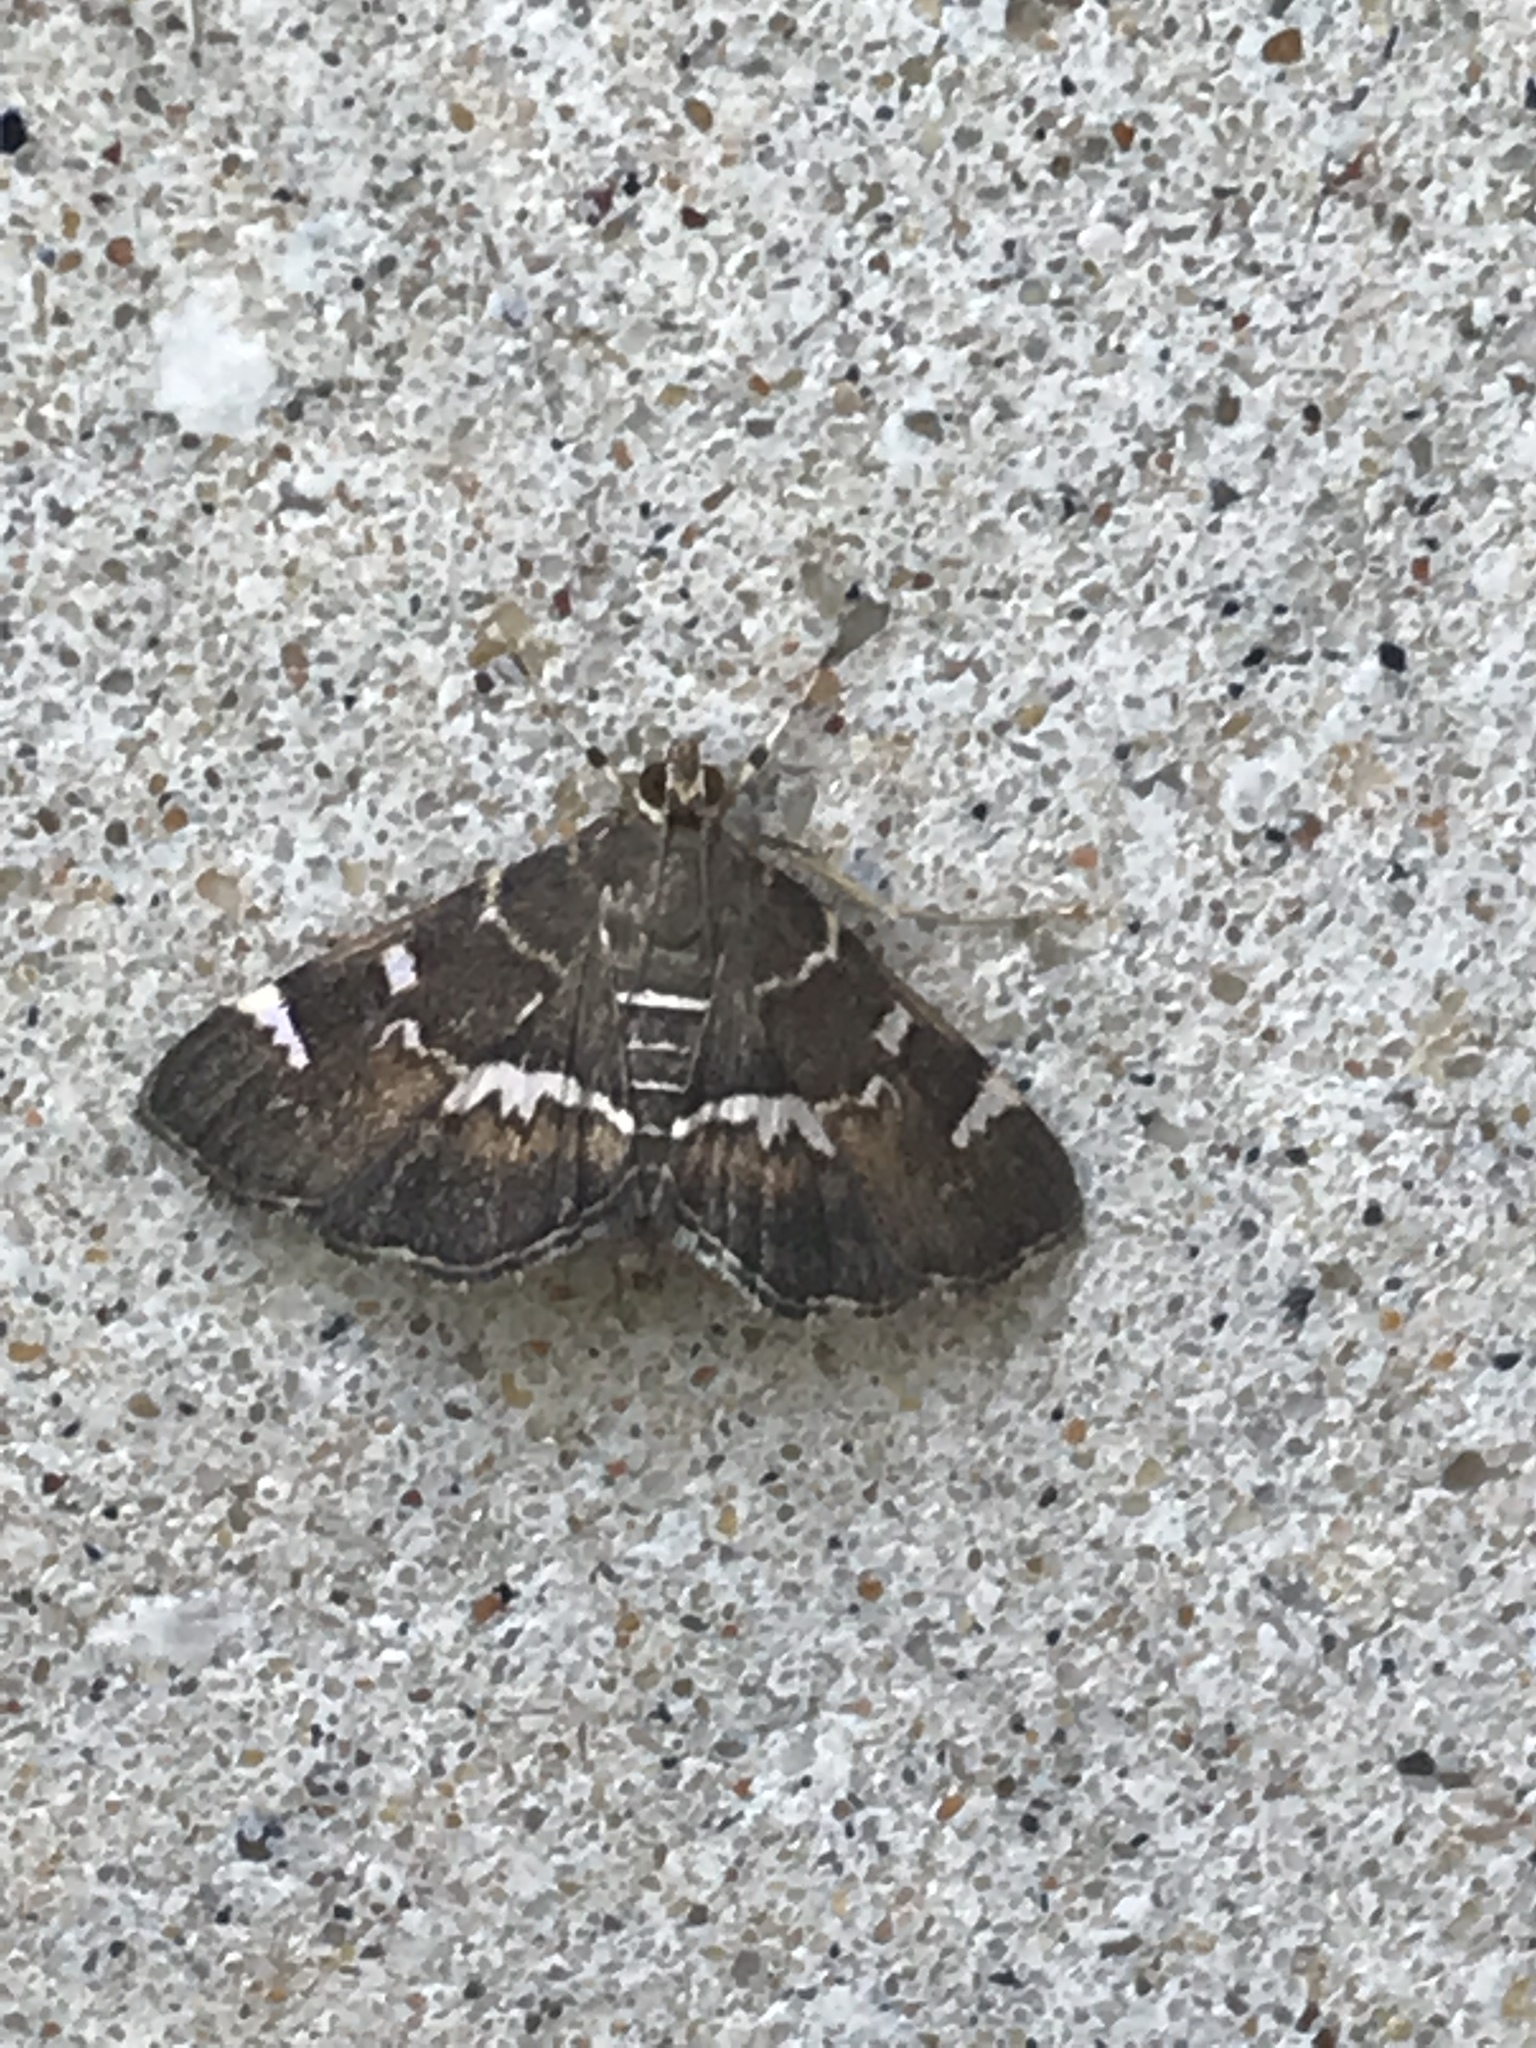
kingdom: Animalia
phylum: Arthropoda
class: Insecta
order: Lepidoptera
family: Crambidae
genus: Hymenia
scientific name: Hymenia perspectalis
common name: Spotted beet webworm
